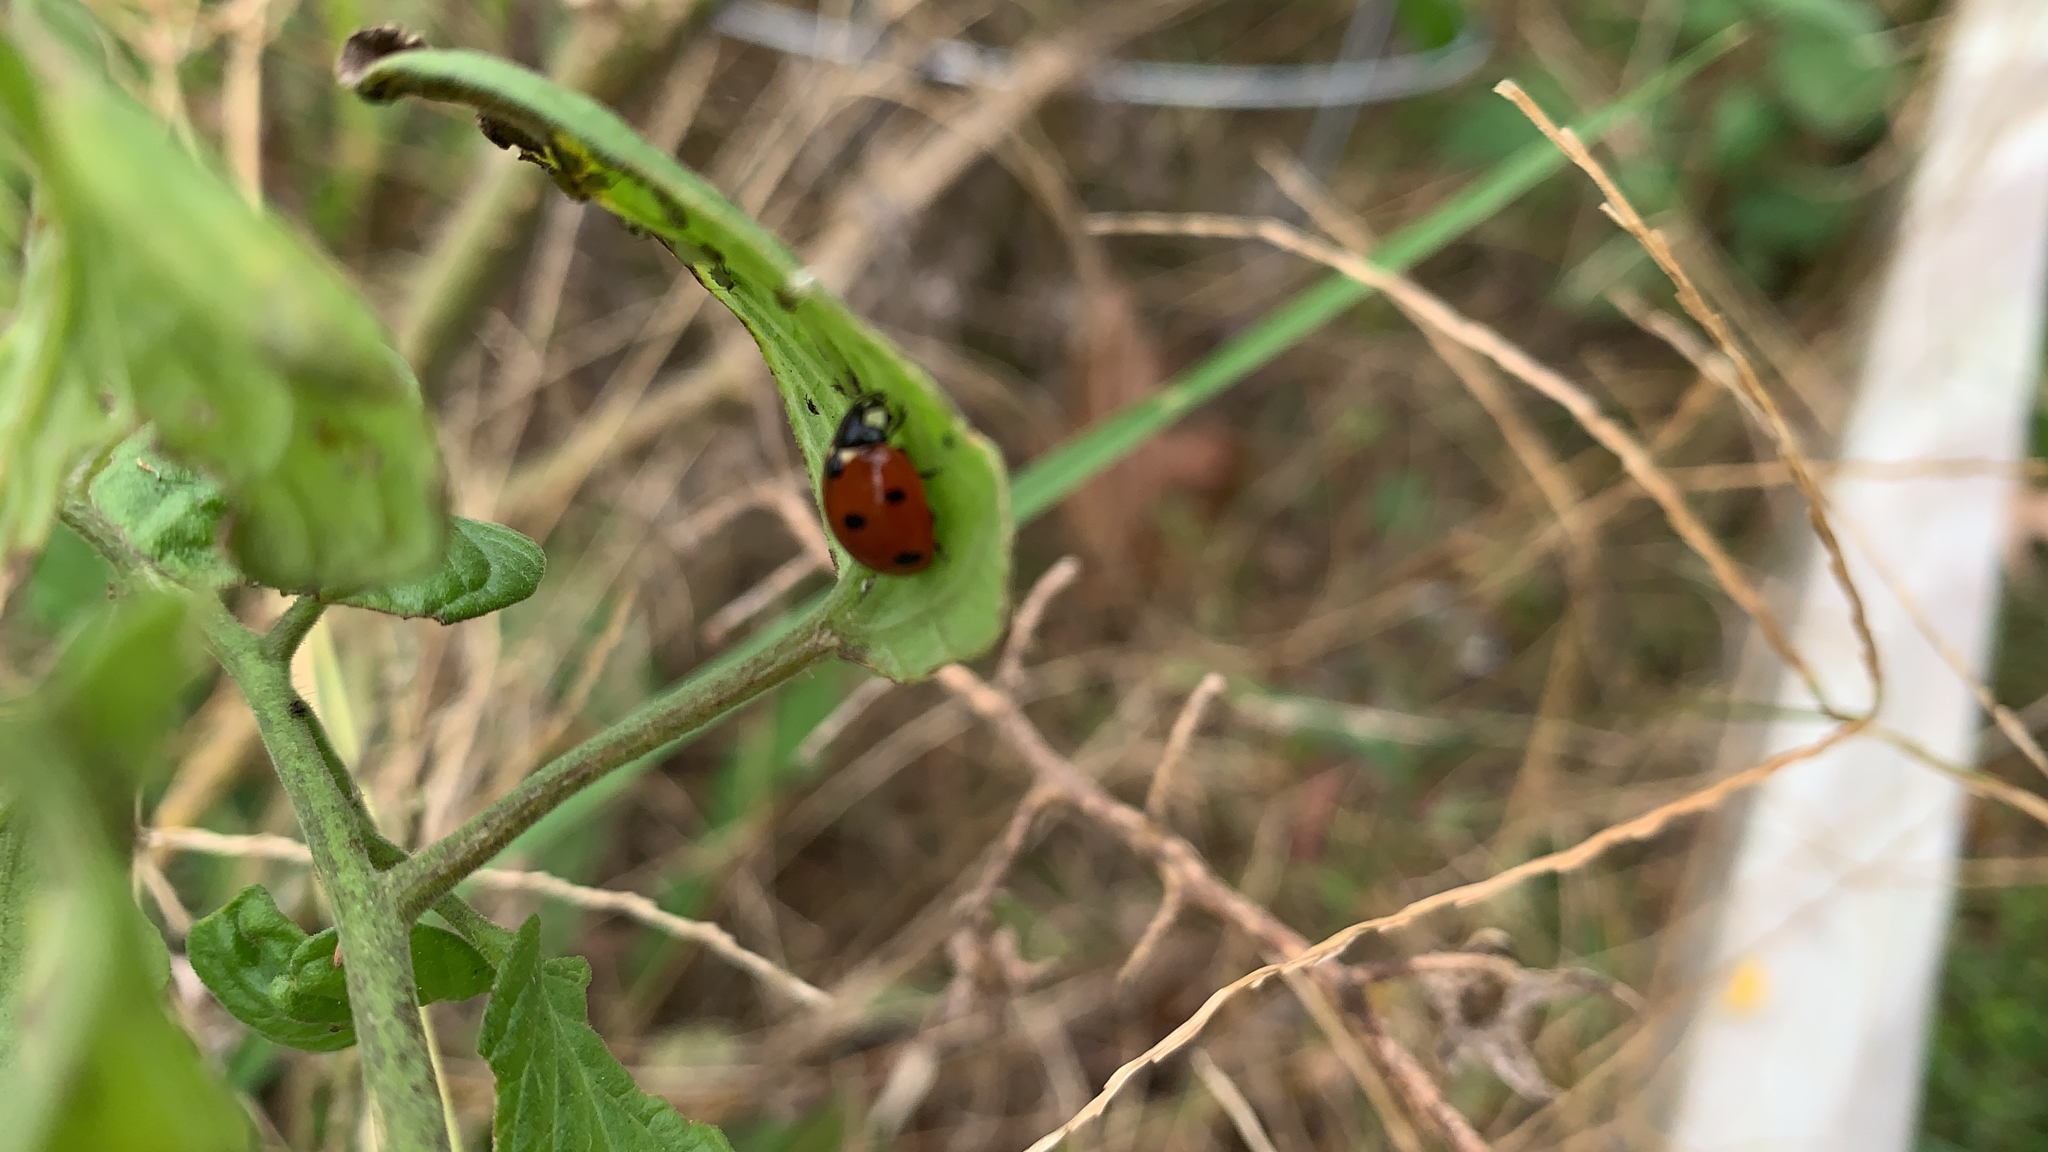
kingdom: Animalia
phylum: Arthropoda
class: Insecta
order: Coleoptera
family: Coccinellidae
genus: Coccinella
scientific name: Coccinella septempunctata
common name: Sevenspotted lady beetle
